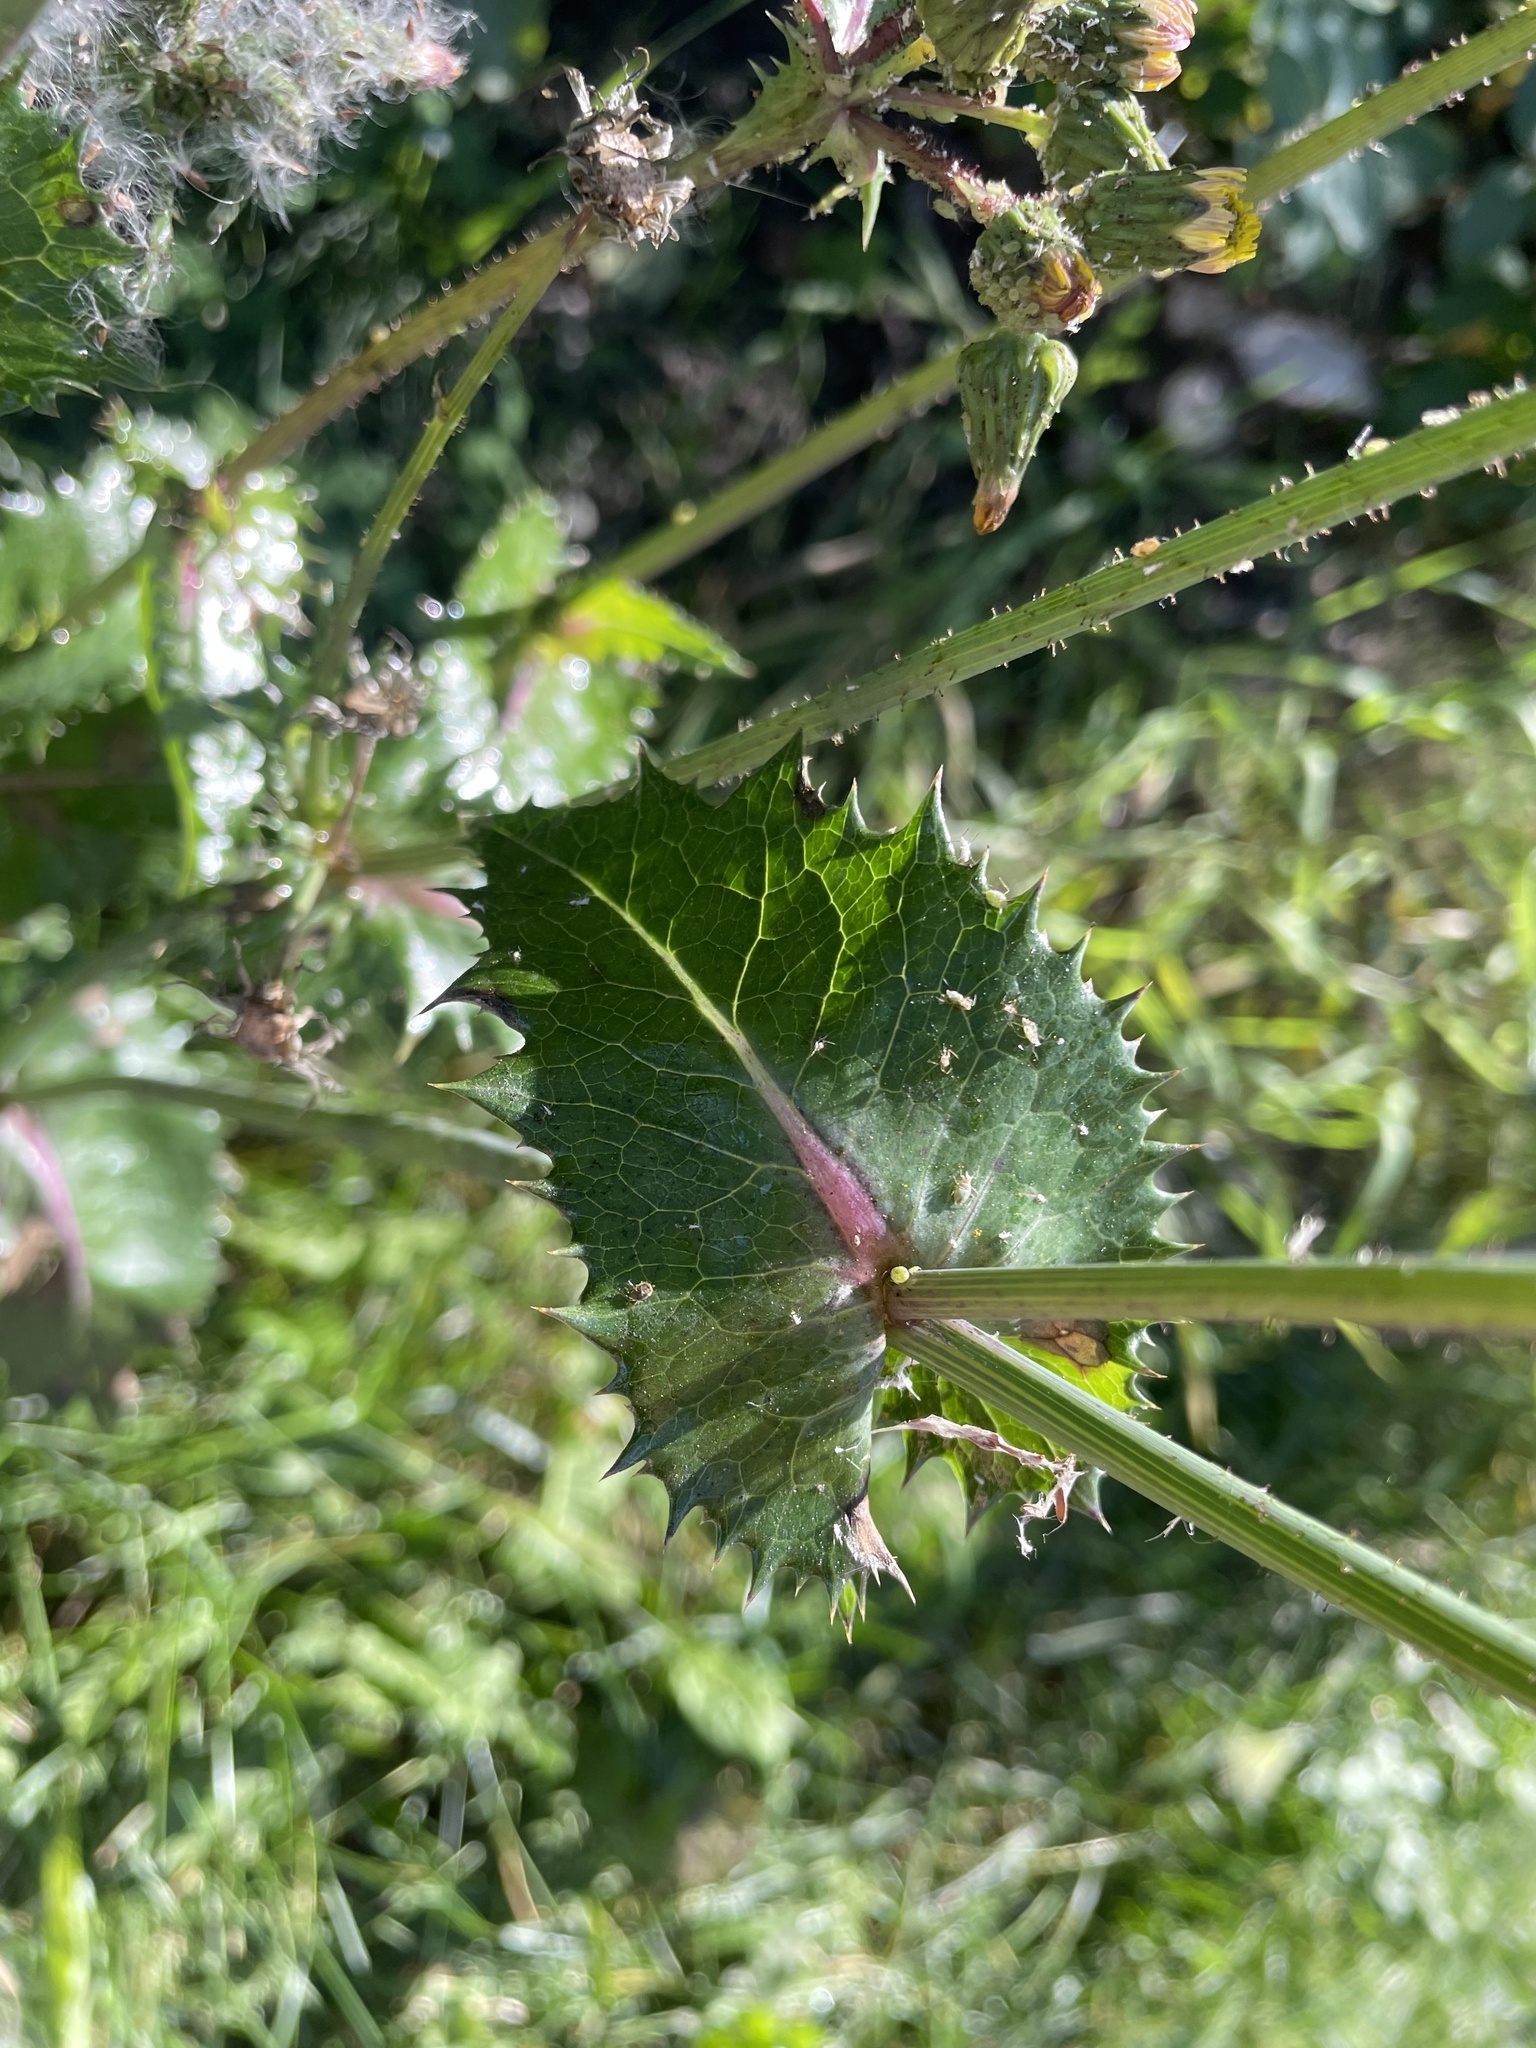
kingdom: Plantae
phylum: Tracheophyta
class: Magnoliopsida
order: Asterales
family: Asteraceae
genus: Sonchus
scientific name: Sonchus asper
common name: Prickly sow-thistle
